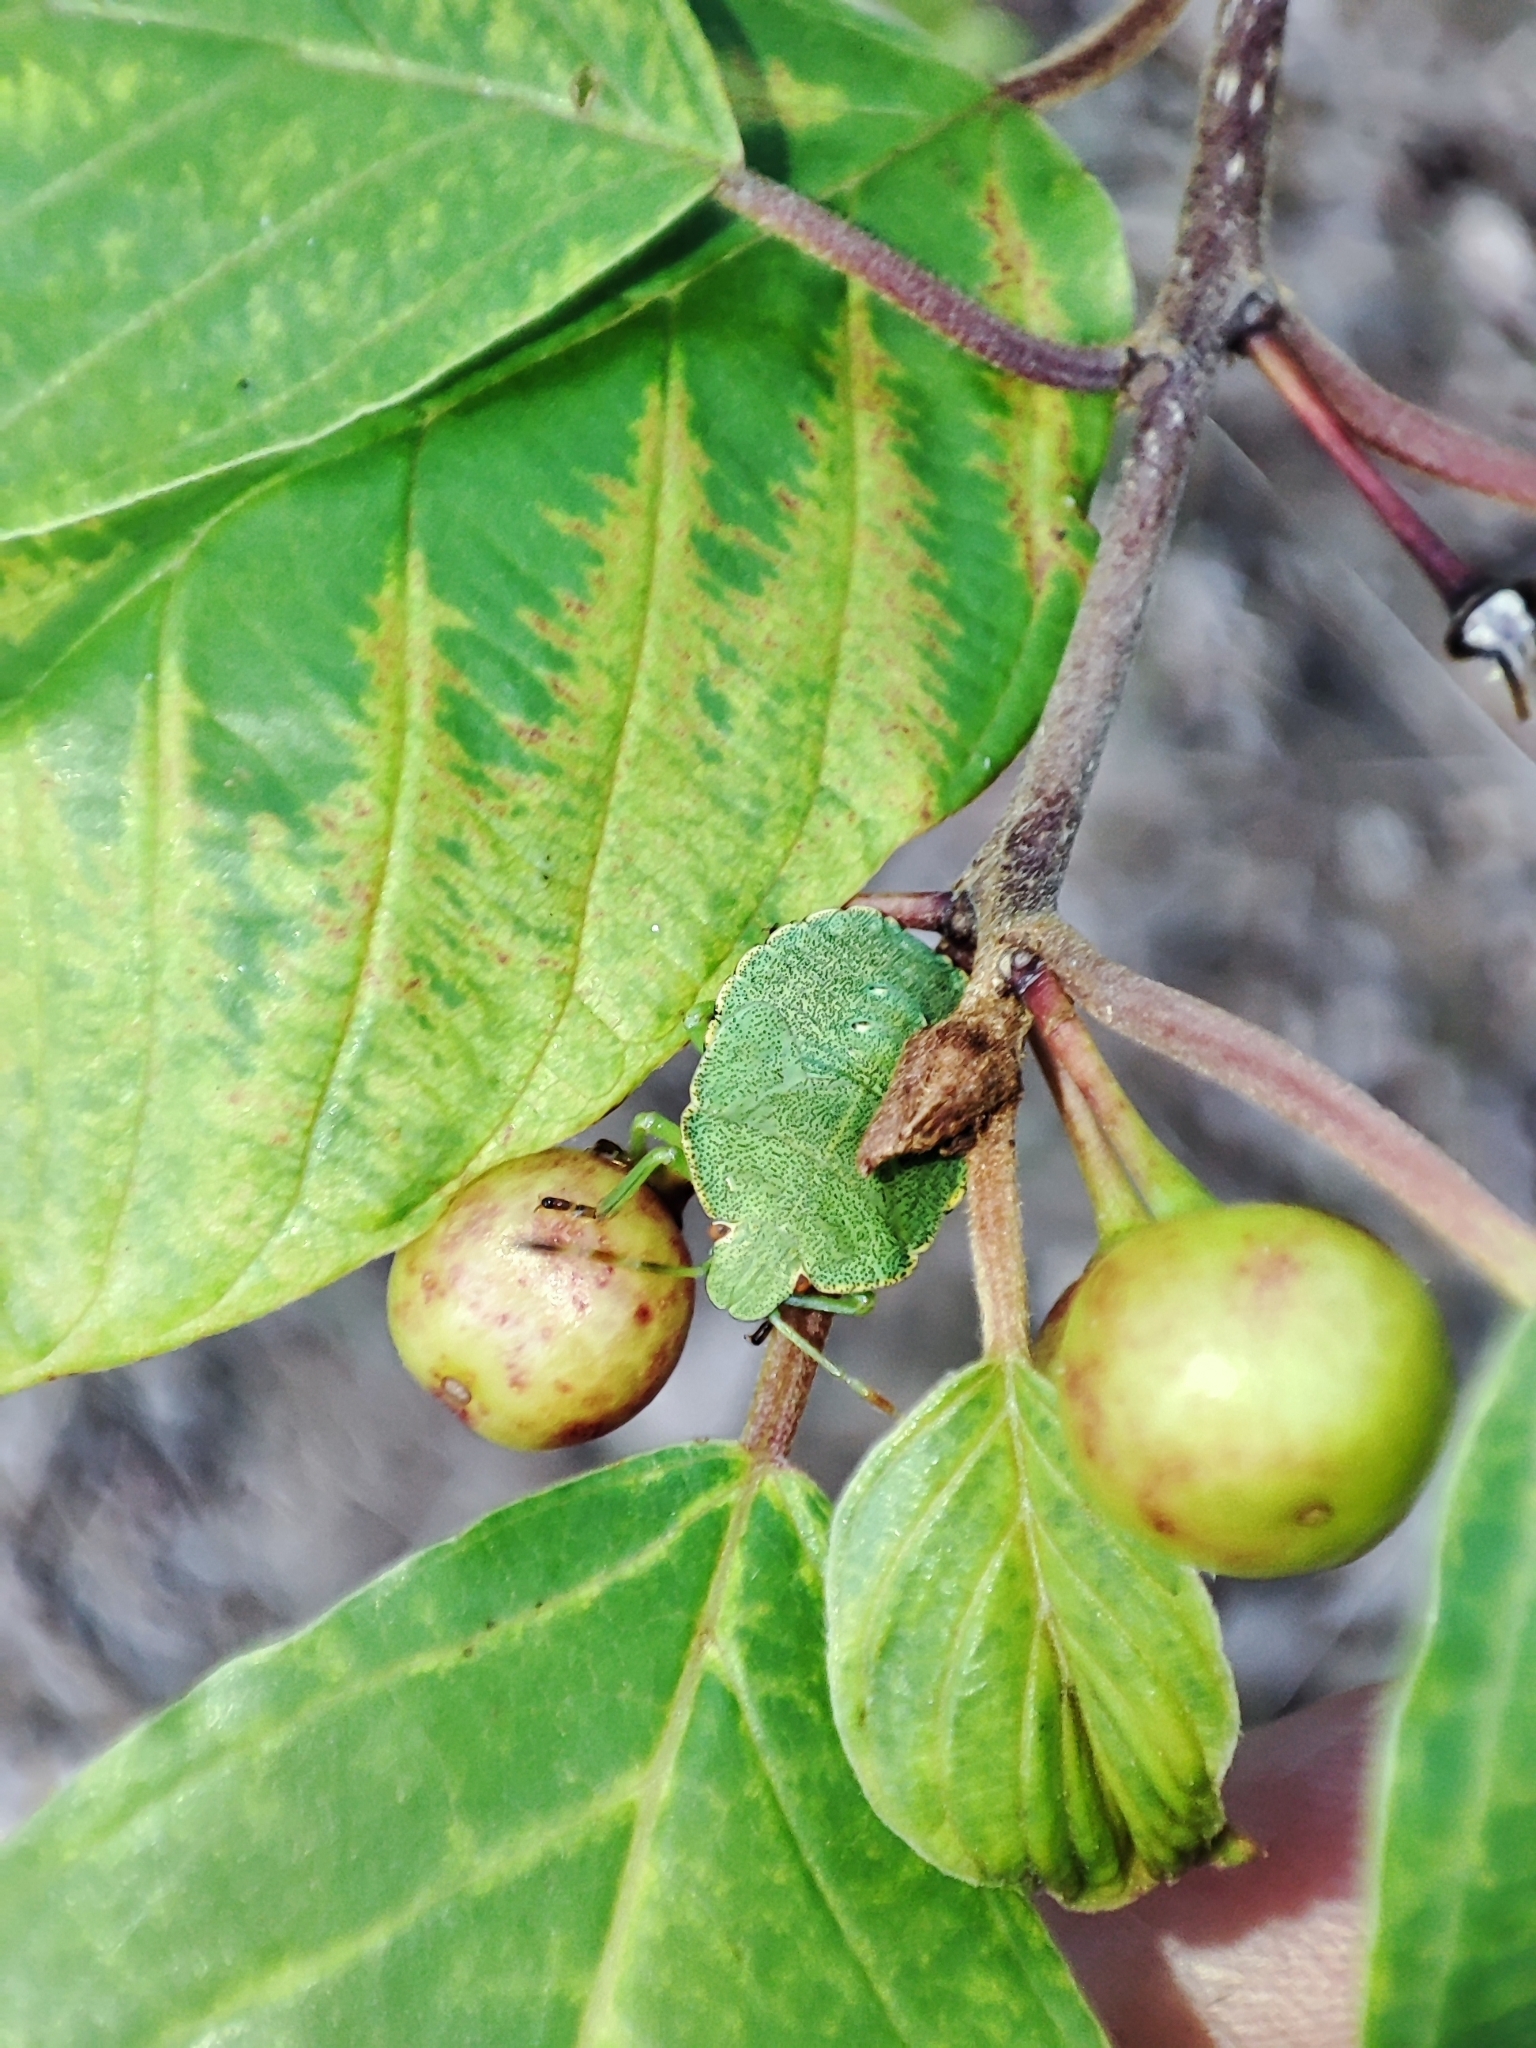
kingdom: Animalia
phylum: Arthropoda
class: Insecta
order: Hemiptera
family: Pentatomidae
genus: Palomena
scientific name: Palomena prasina
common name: Green shieldbug
